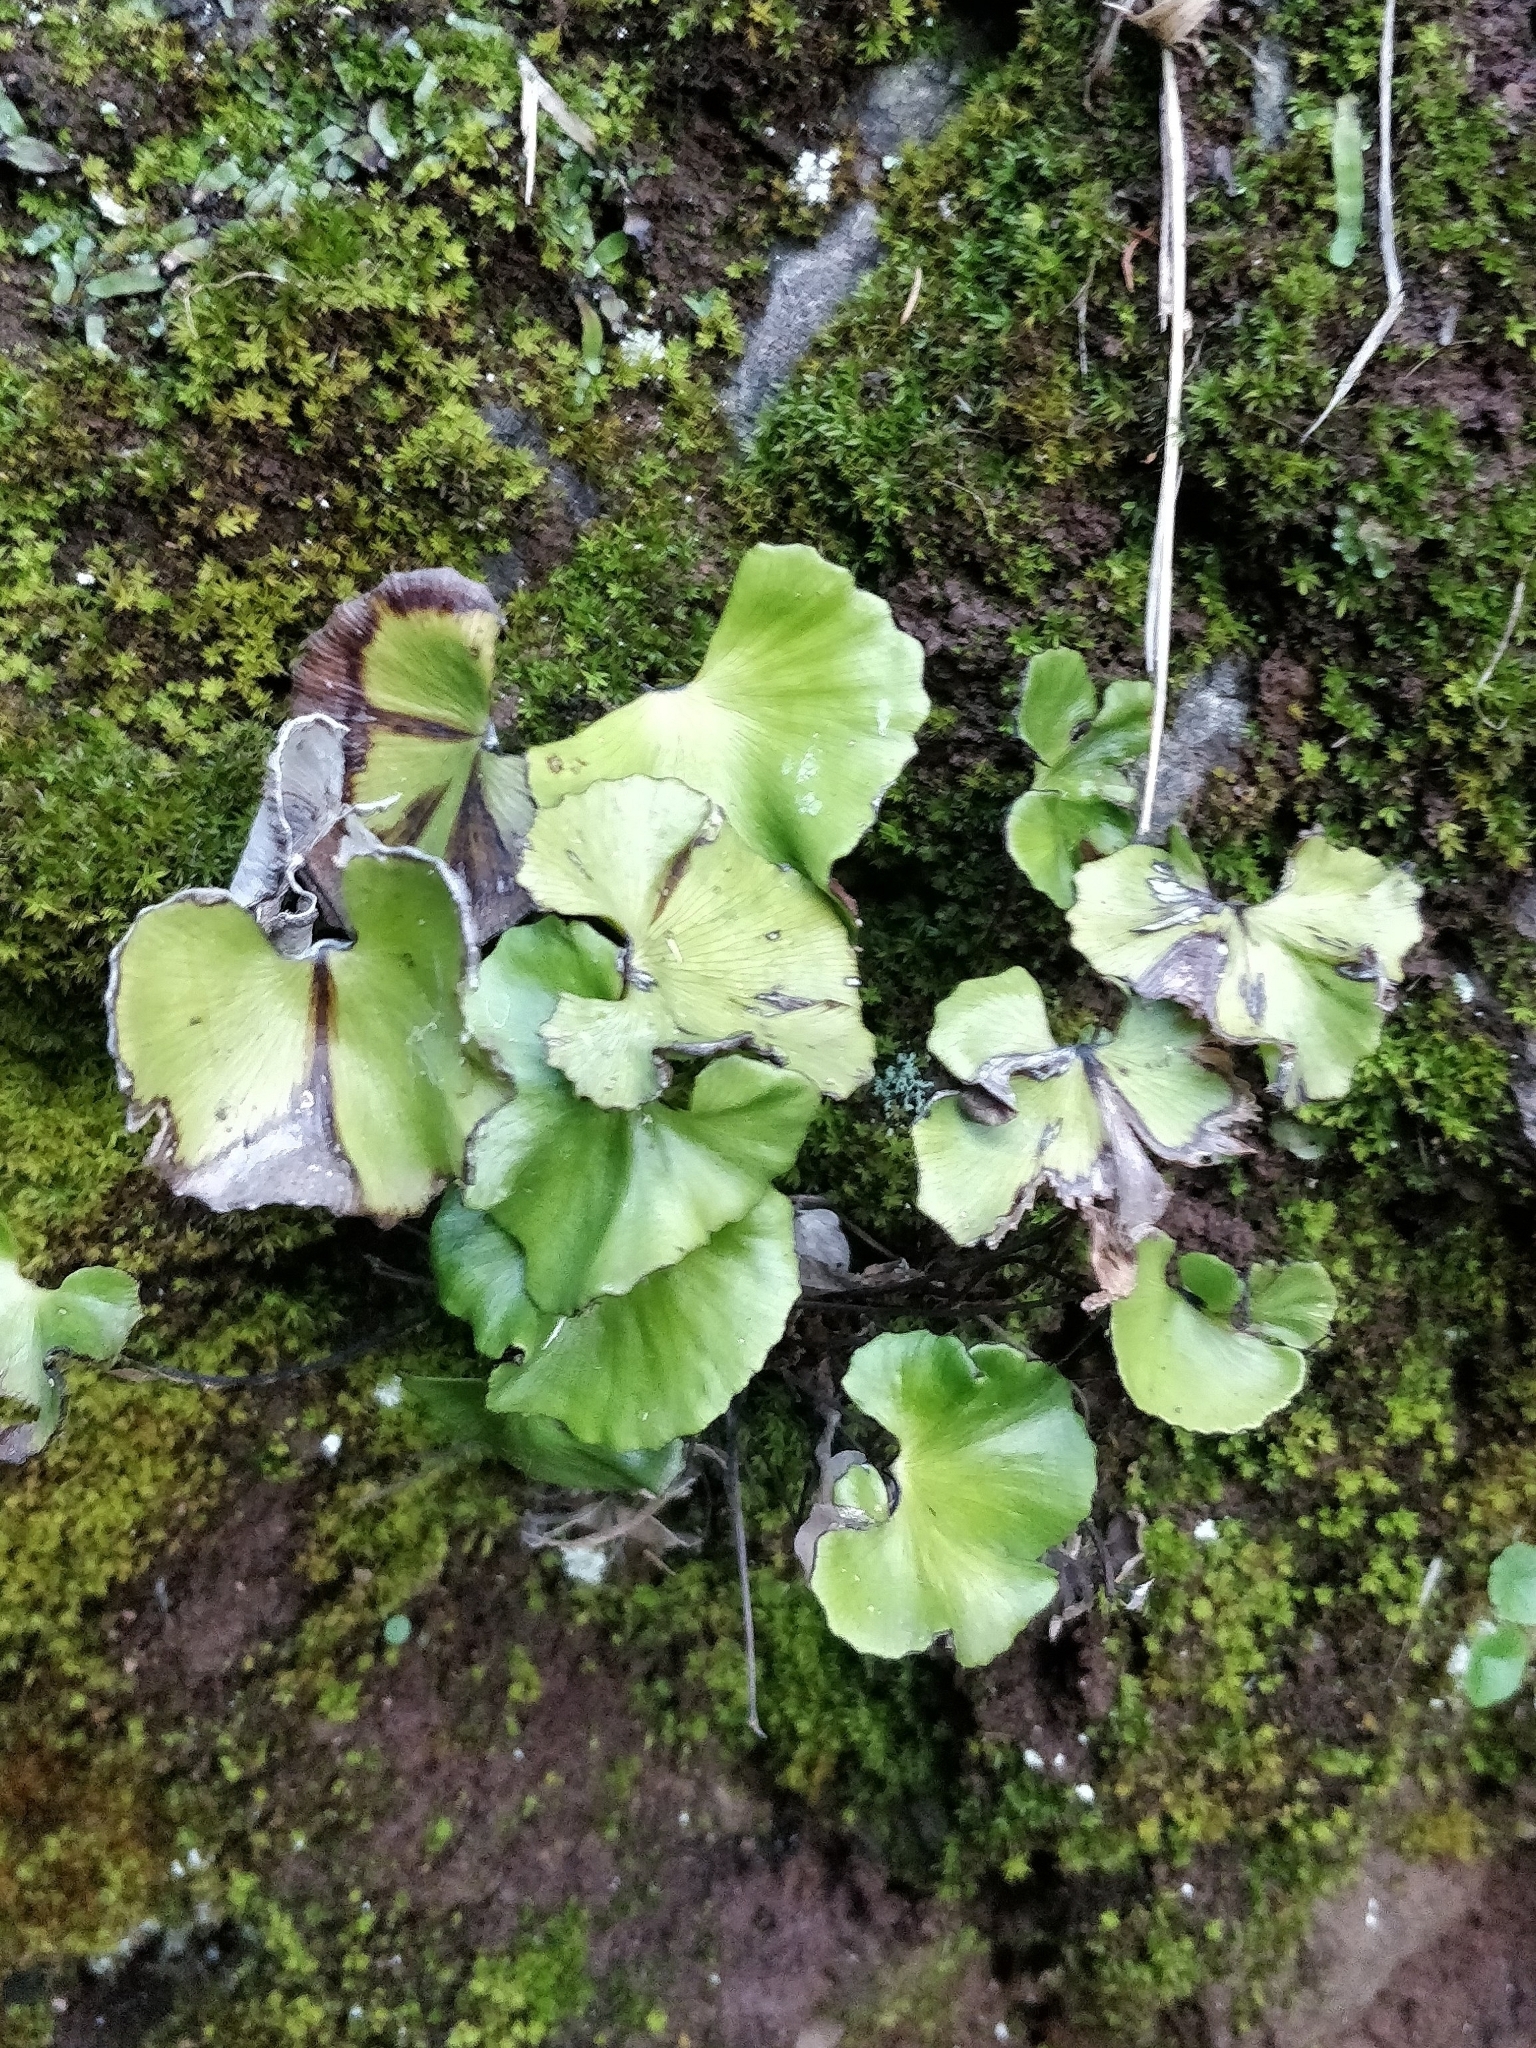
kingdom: Plantae
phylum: Tracheophyta
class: Polypodiopsida
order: Polypodiales
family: Pteridaceae
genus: Adiantum
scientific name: Adiantum reniforme
